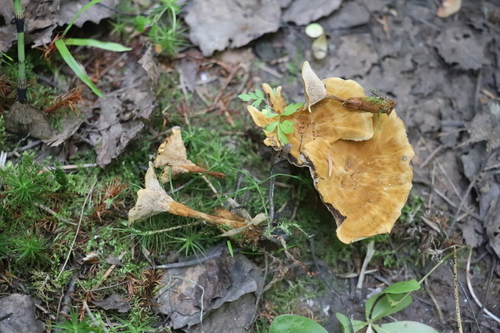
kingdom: Fungi
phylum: Basidiomycota
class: Agaricomycetes
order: Hymenochaetales
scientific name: Hymenochaetales
